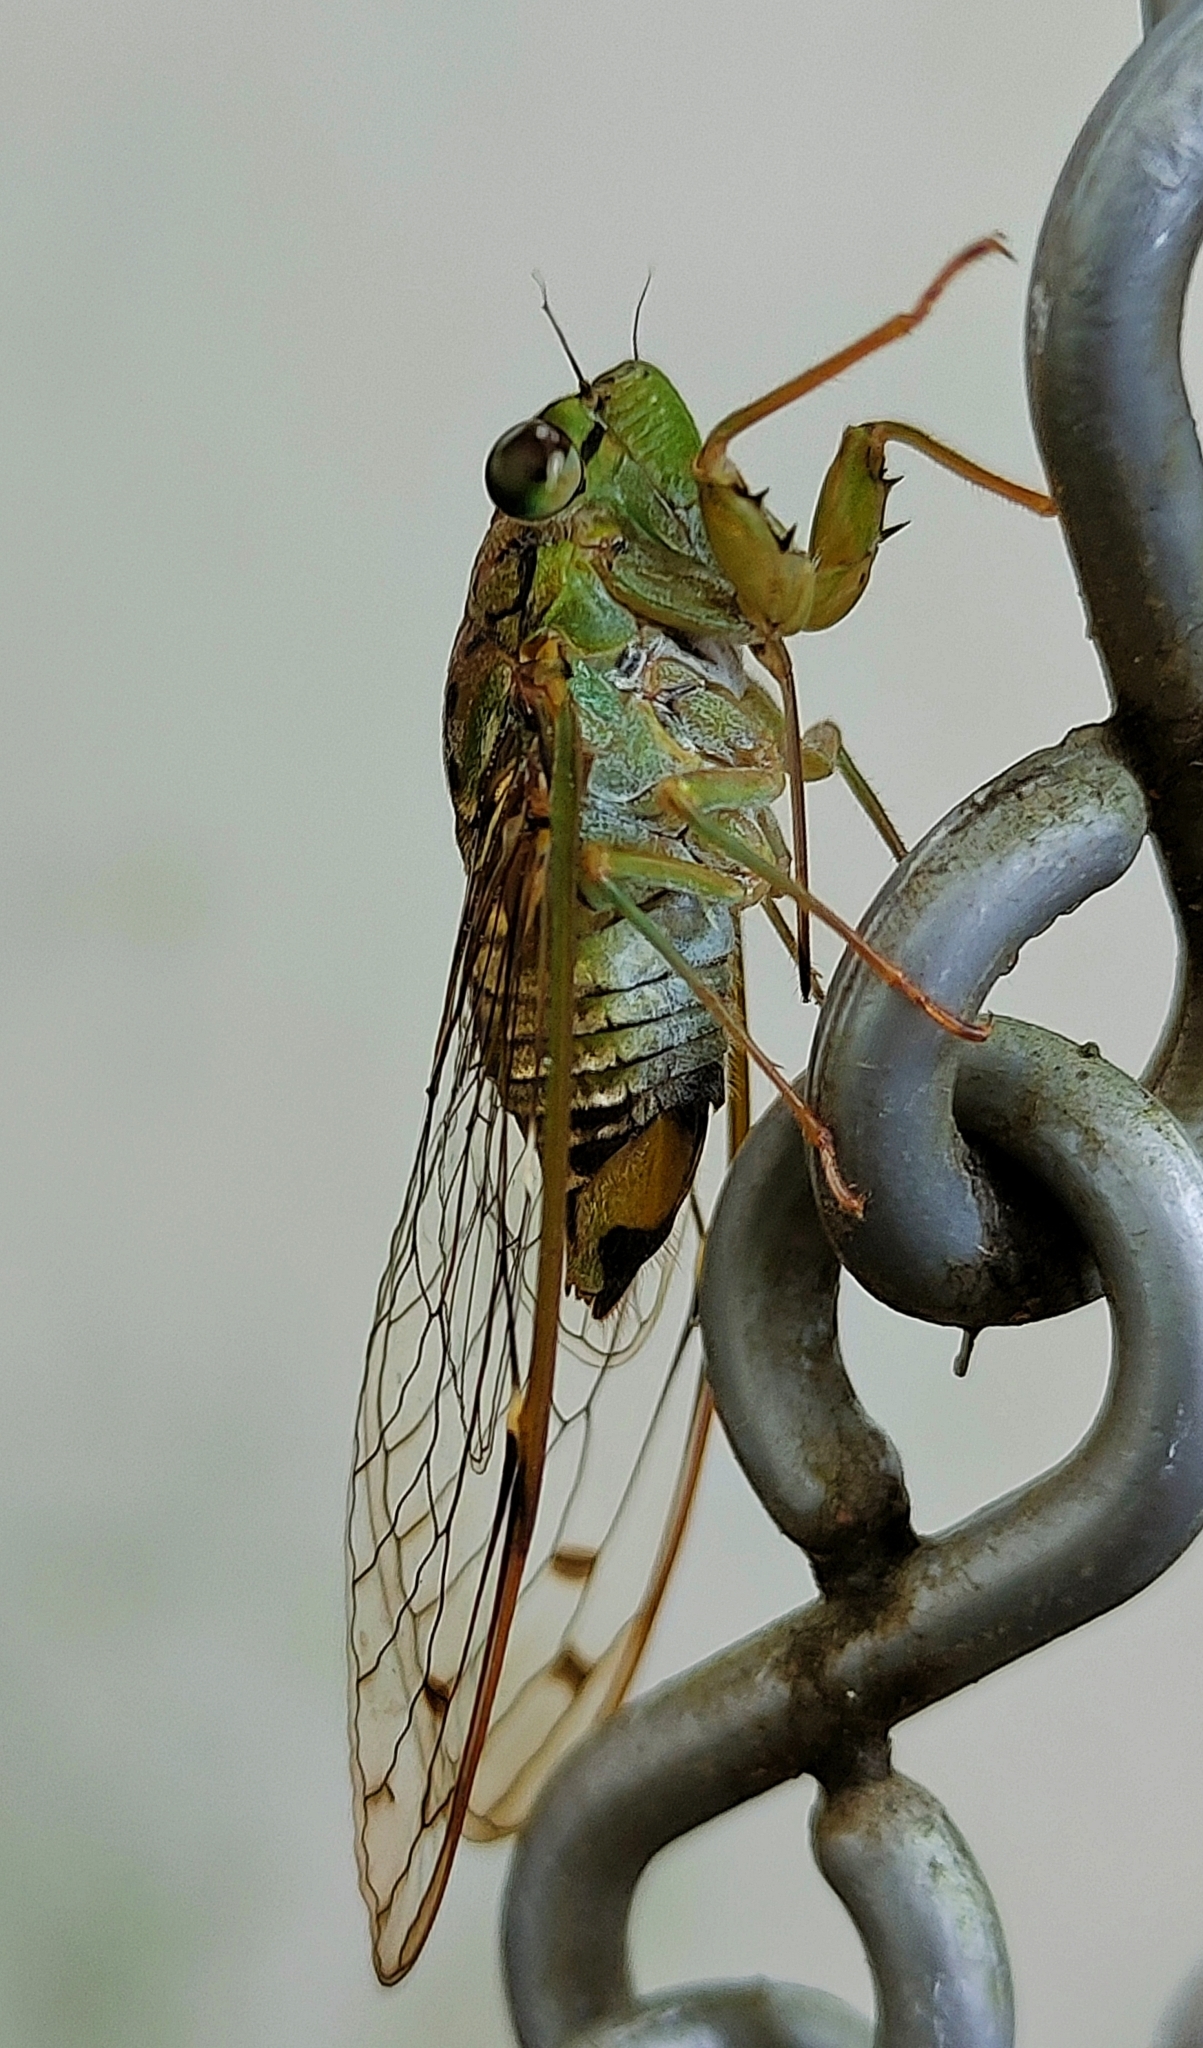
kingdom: Animalia
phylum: Arthropoda
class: Insecta
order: Hemiptera
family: Cicadidae
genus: Purana
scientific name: Purana tigrina
